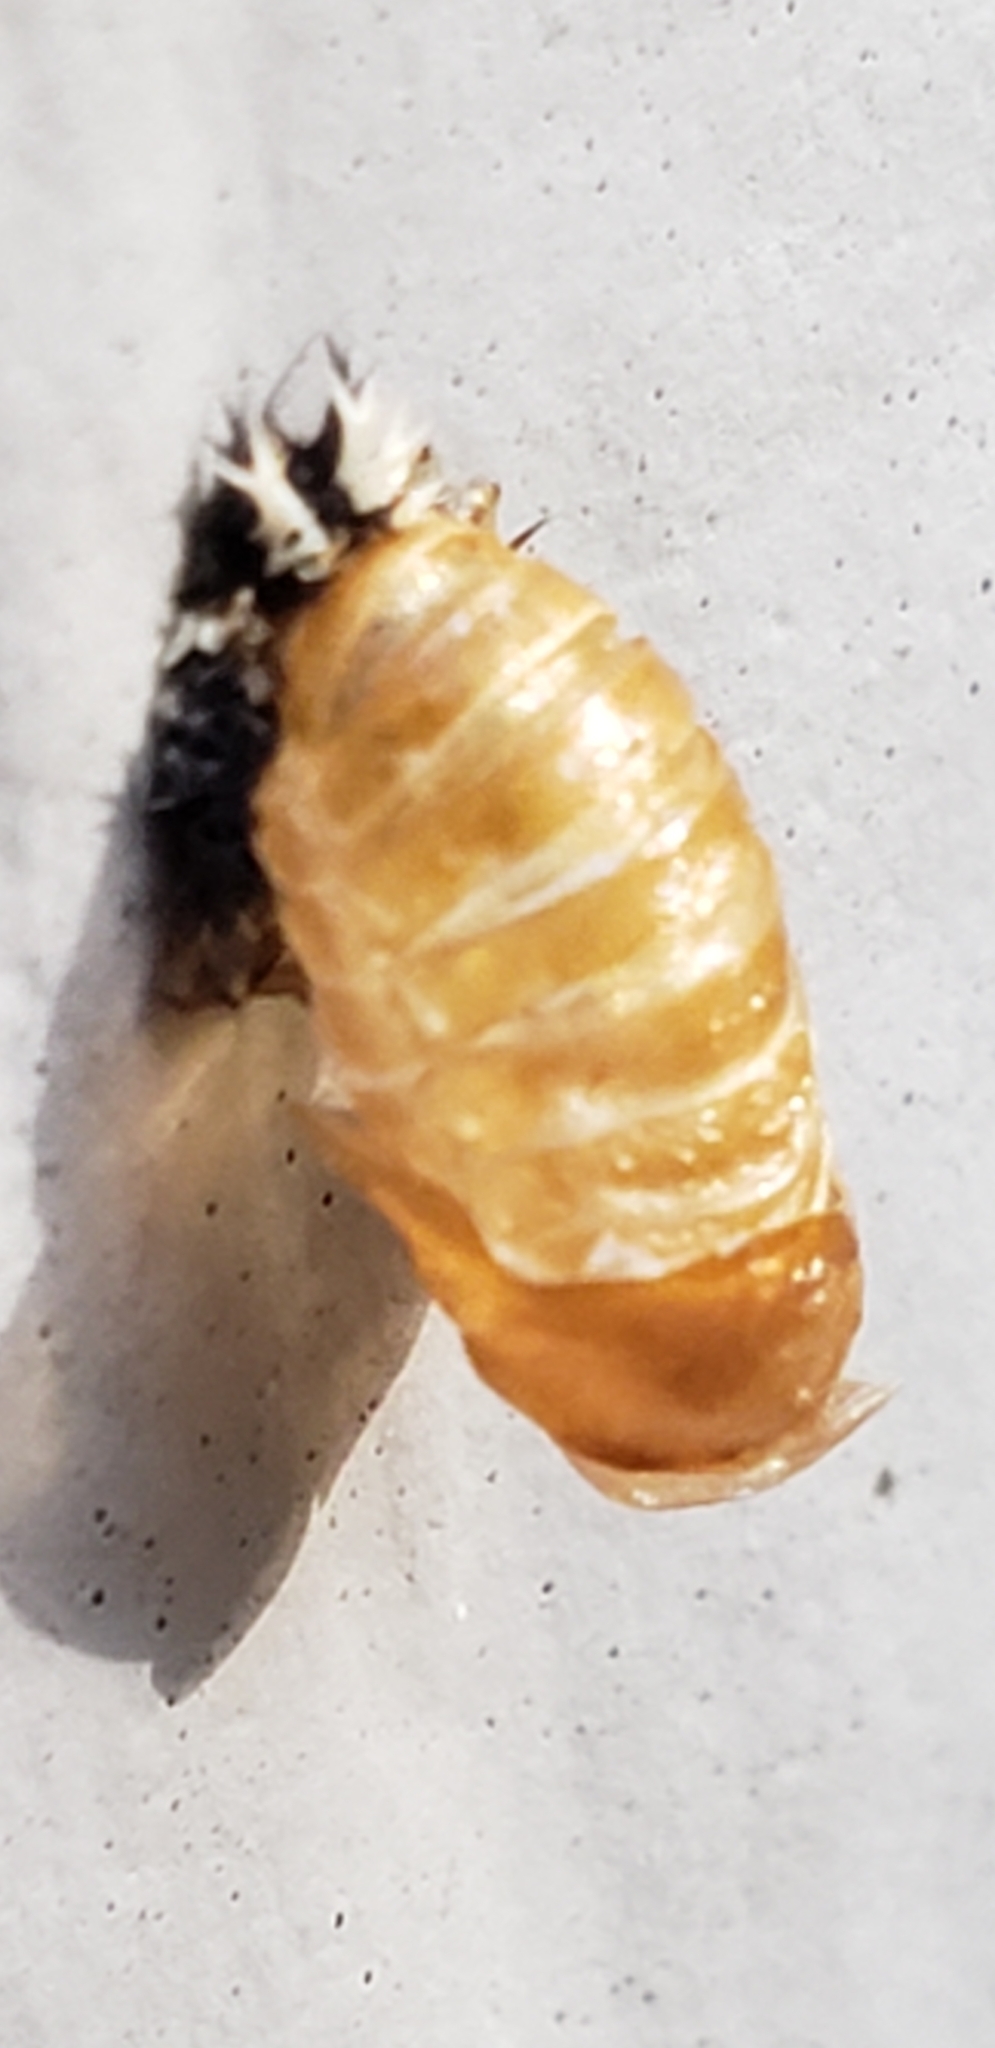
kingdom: Animalia
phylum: Arthropoda
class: Insecta
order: Coleoptera
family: Coccinellidae
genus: Harmonia
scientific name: Harmonia axyridis
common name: Harlequin ladybird
